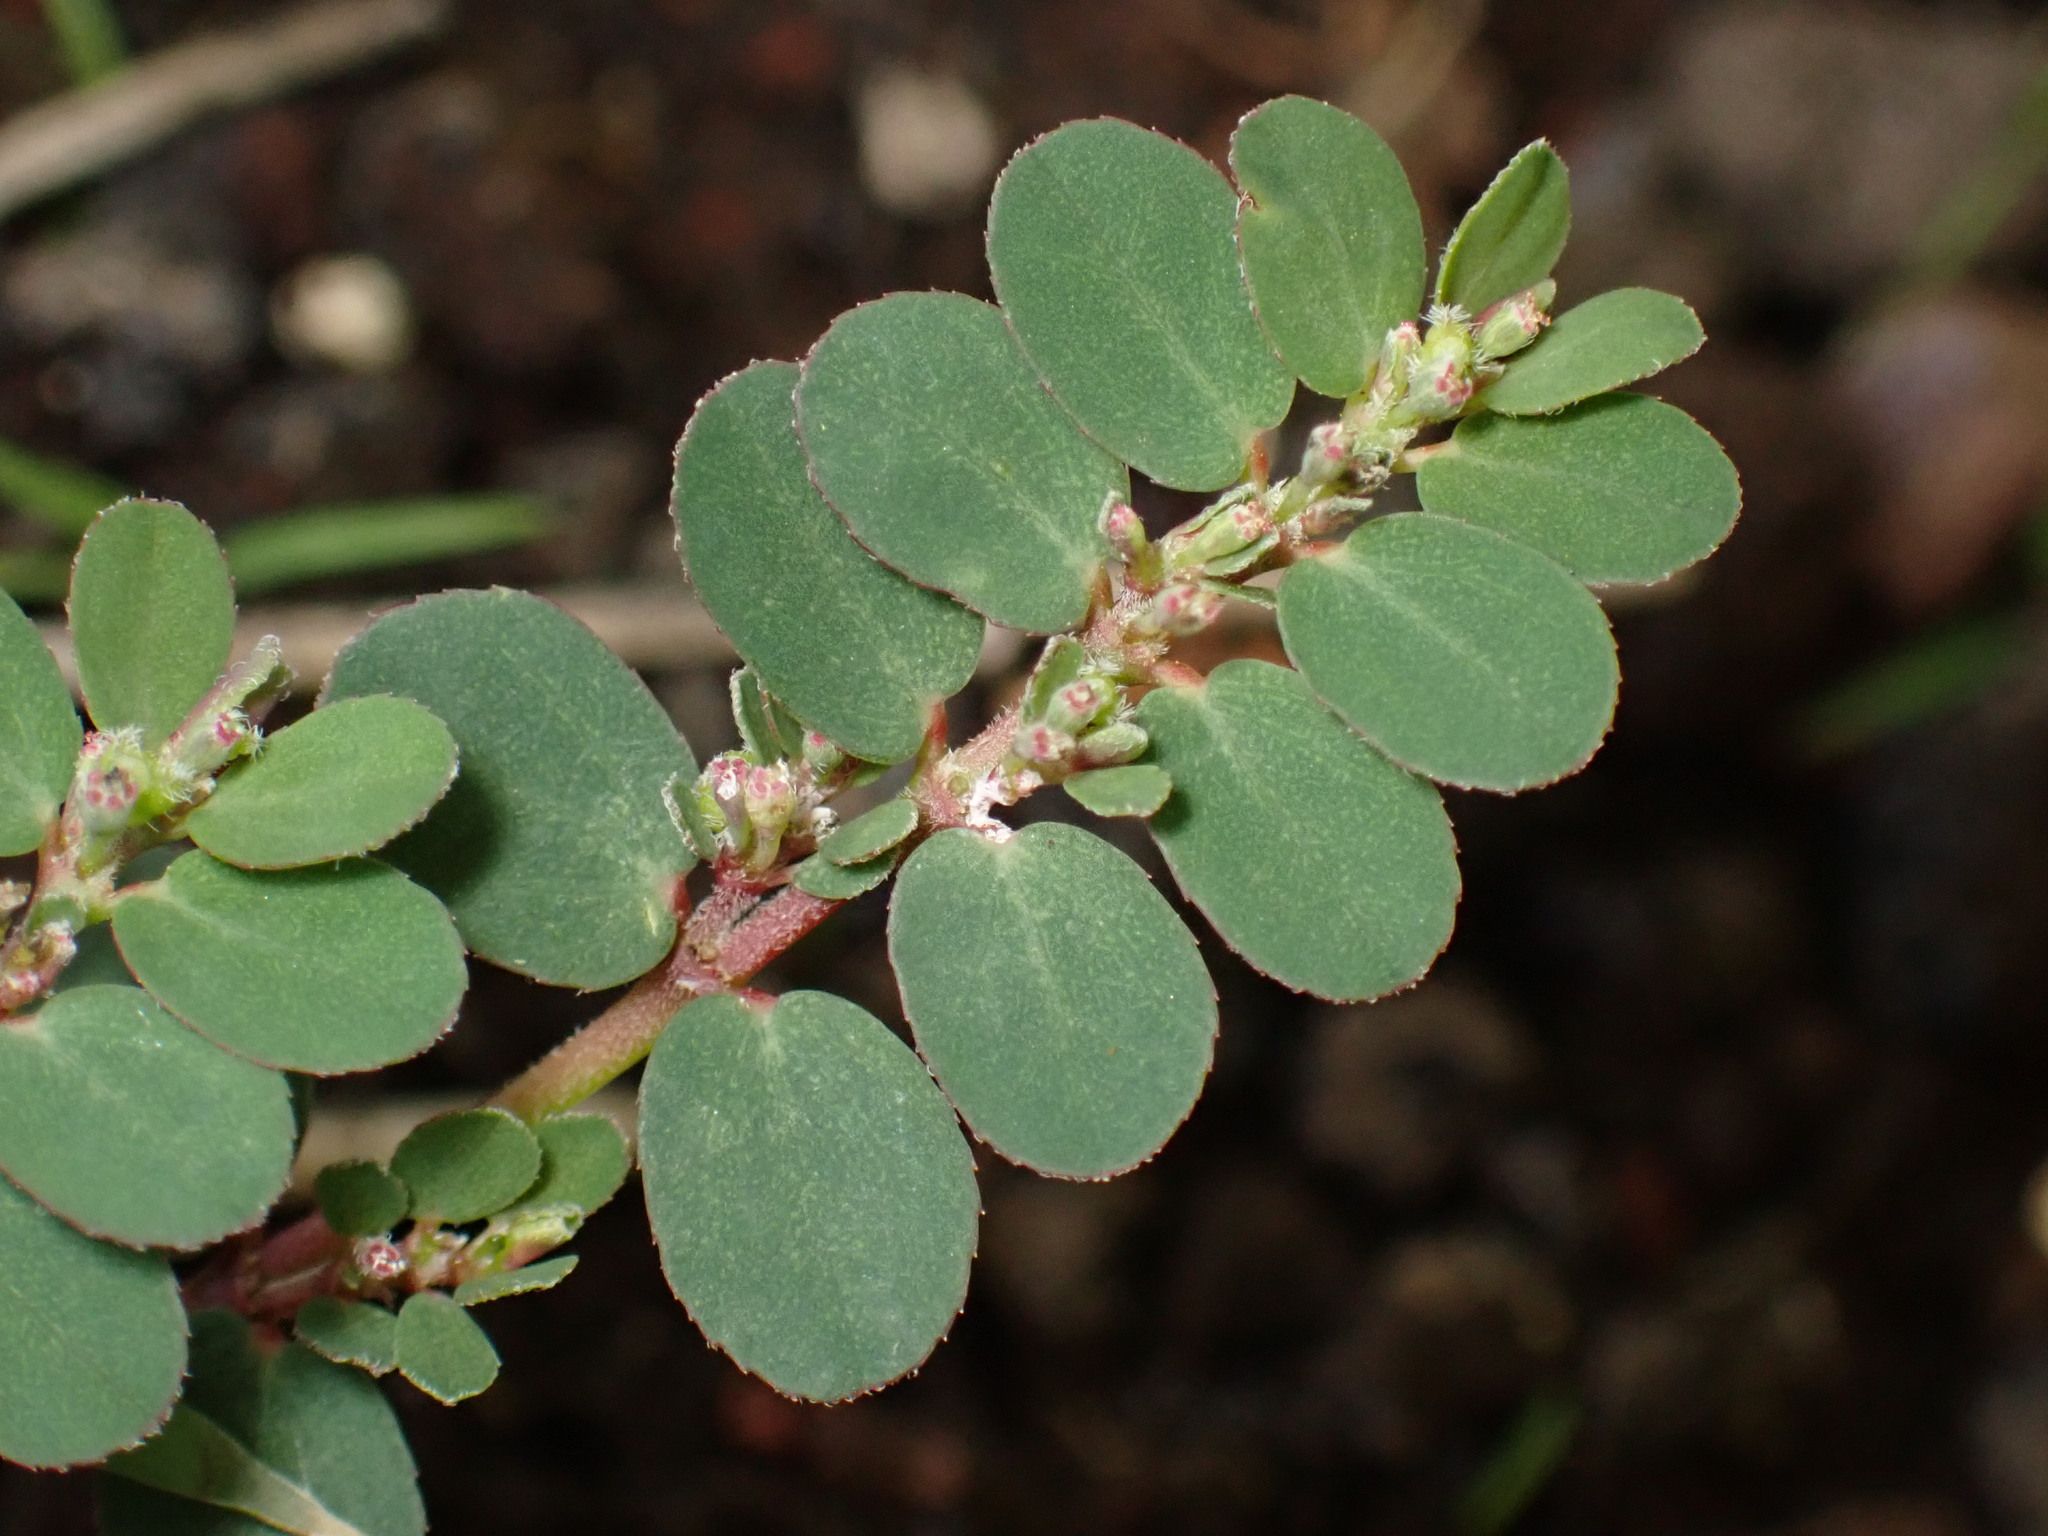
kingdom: Plantae
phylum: Tracheophyta
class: Magnoliopsida
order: Malpighiales
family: Euphorbiaceae
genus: Euphorbia
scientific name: Euphorbia prostrata
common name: Prostrate sandmat
